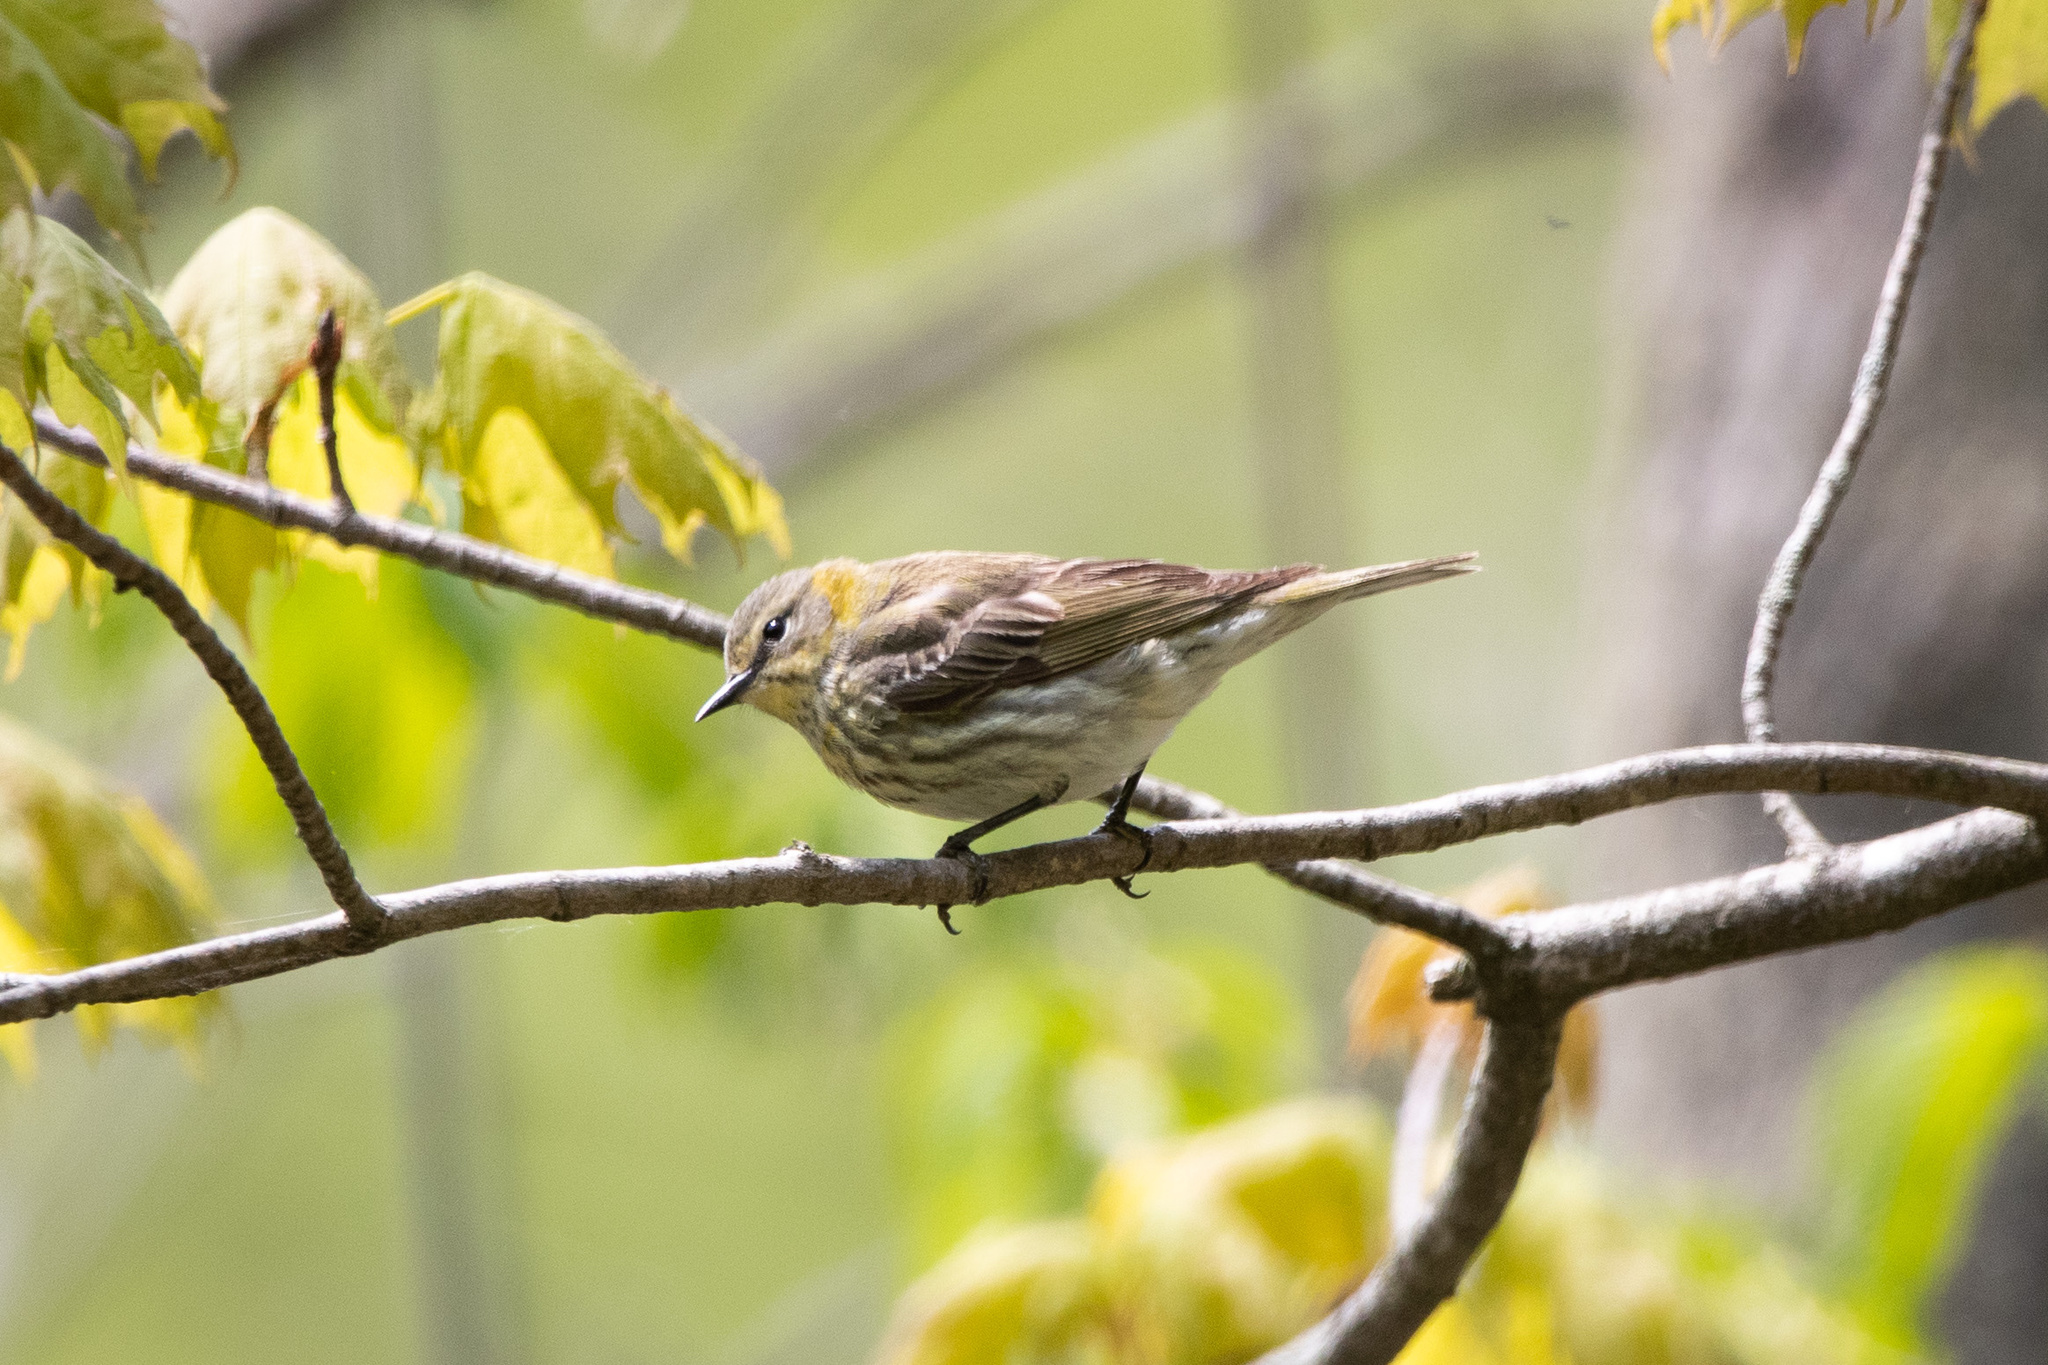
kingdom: Animalia
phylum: Chordata
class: Aves
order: Passeriformes
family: Parulidae
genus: Setophaga
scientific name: Setophaga tigrina
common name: Cape may warbler
